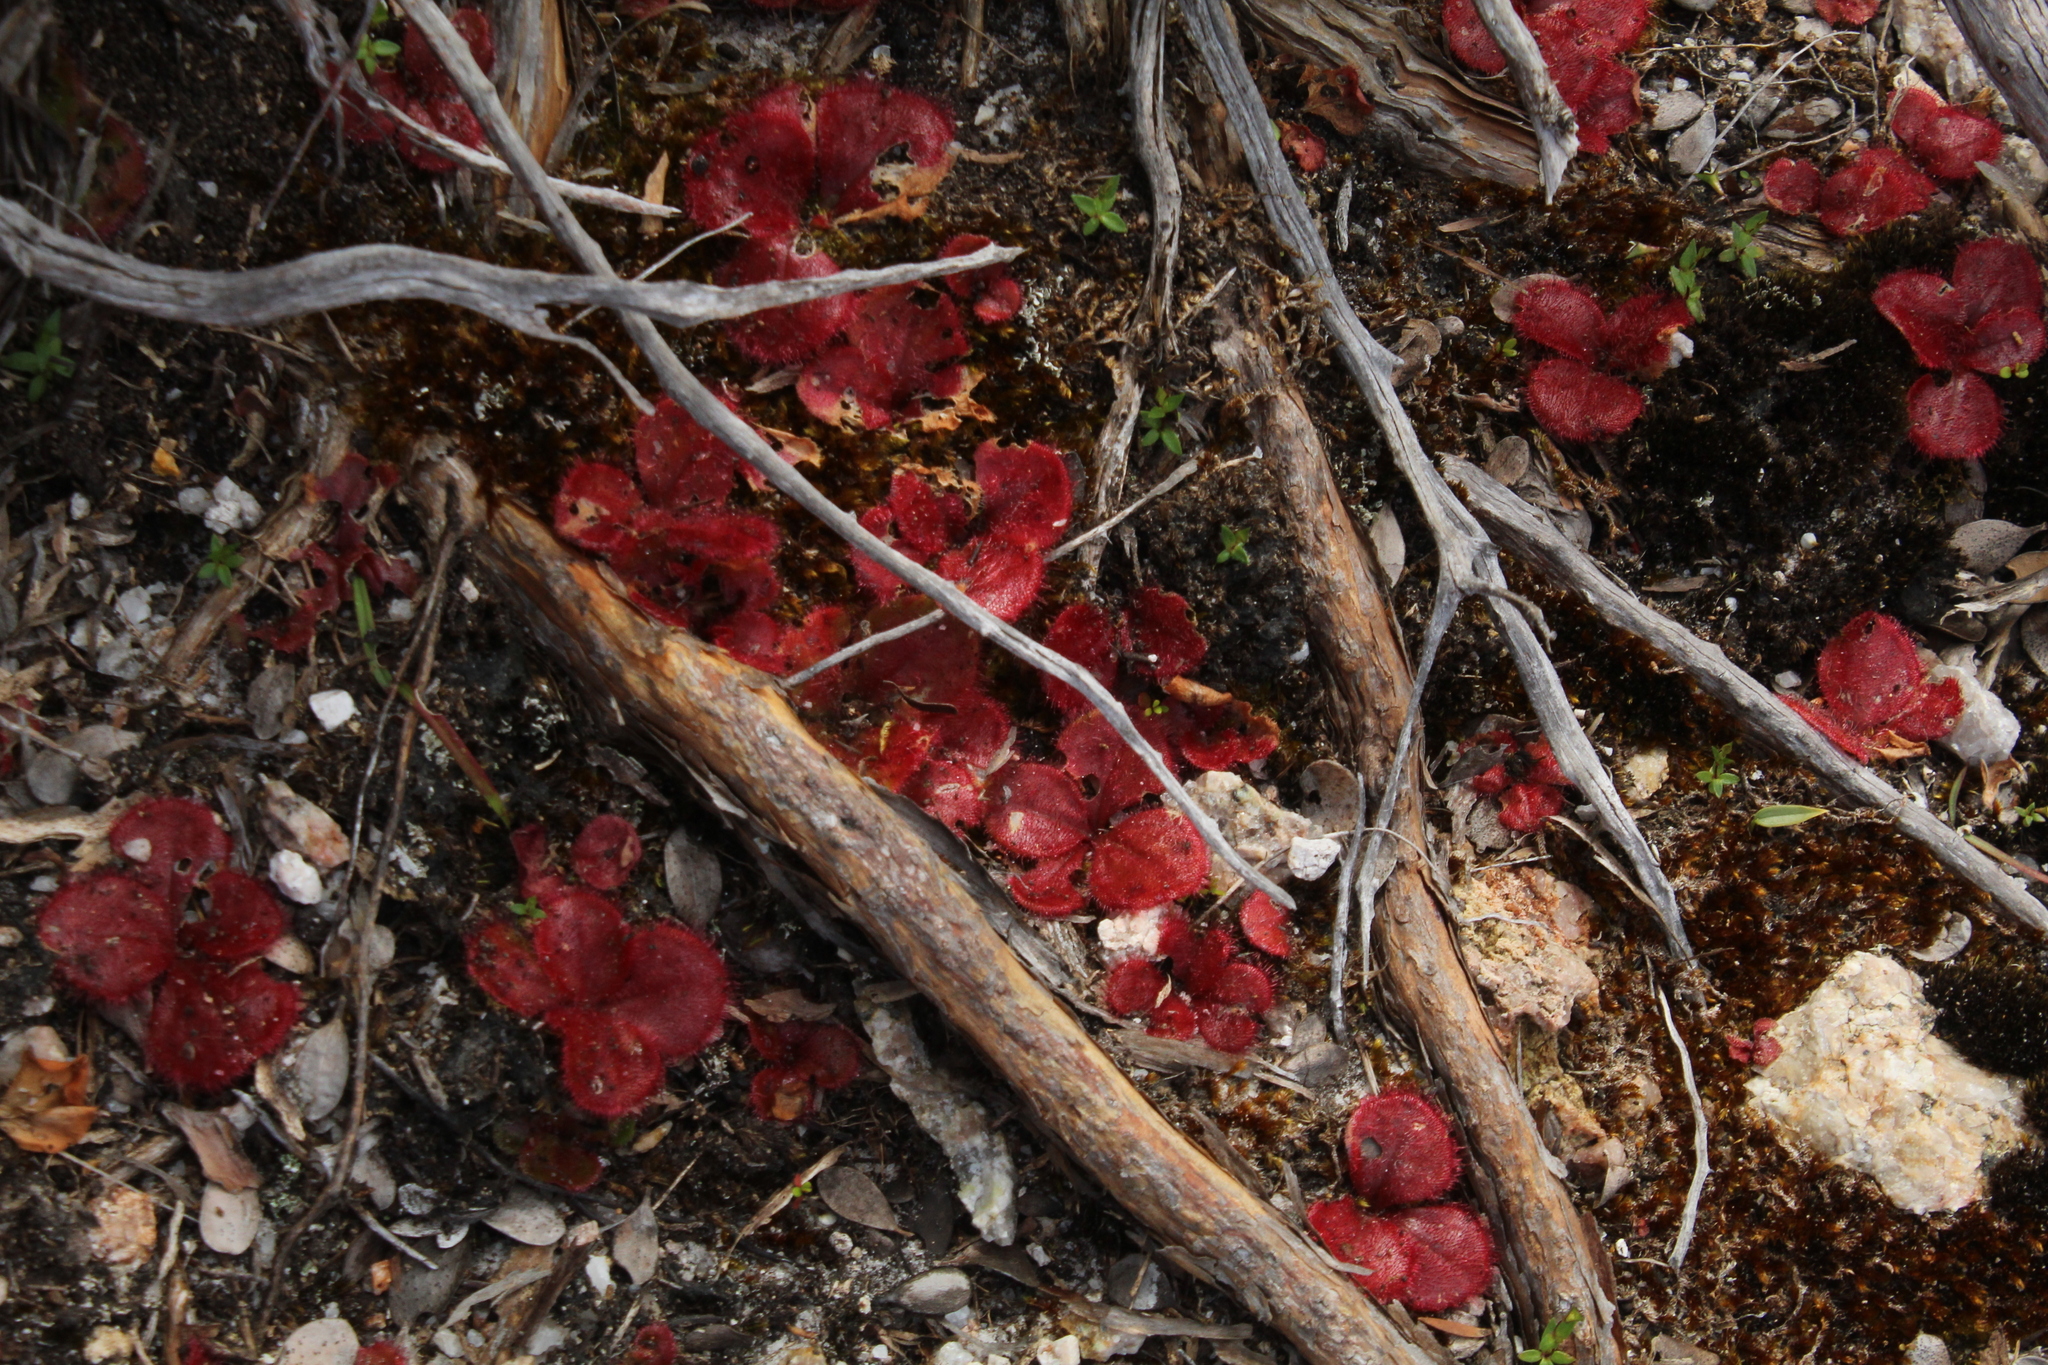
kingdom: Plantae
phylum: Tracheophyta
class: Magnoliopsida
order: Caryophyllales
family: Droseraceae
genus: Drosera
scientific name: Drosera erythrorhiza
